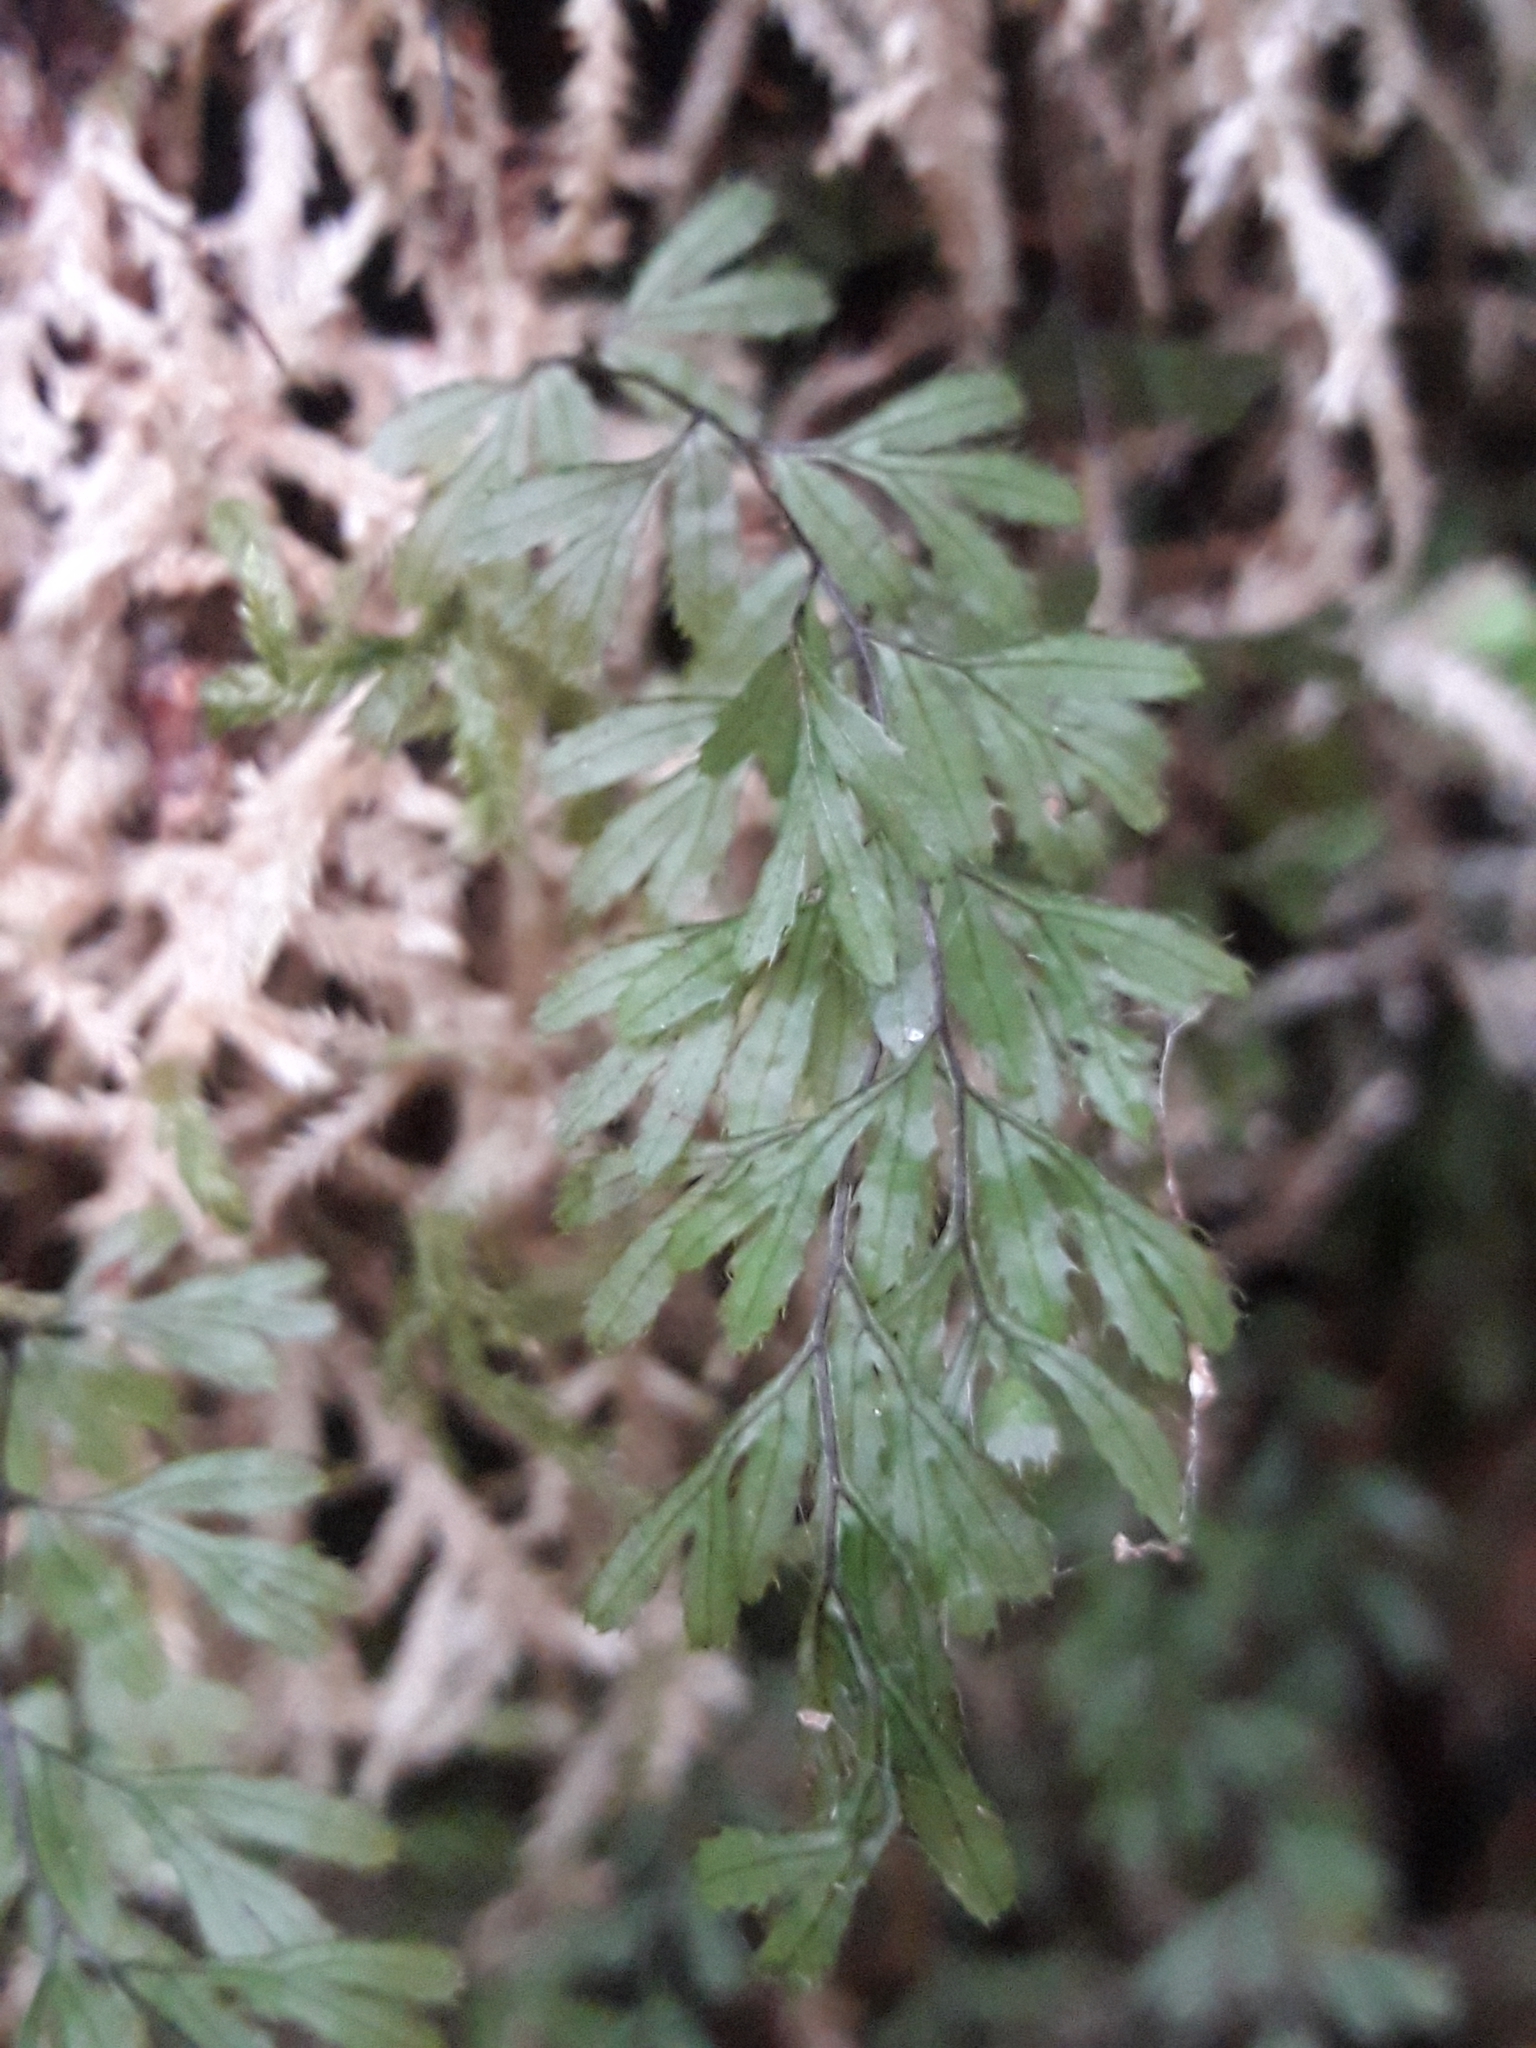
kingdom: Plantae
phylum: Tracheophyta
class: Polypodiopsida
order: Hymenophyllales
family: Hymenophyllaceae
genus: Hymenophyllum
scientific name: Hymenophyllum revolutum
